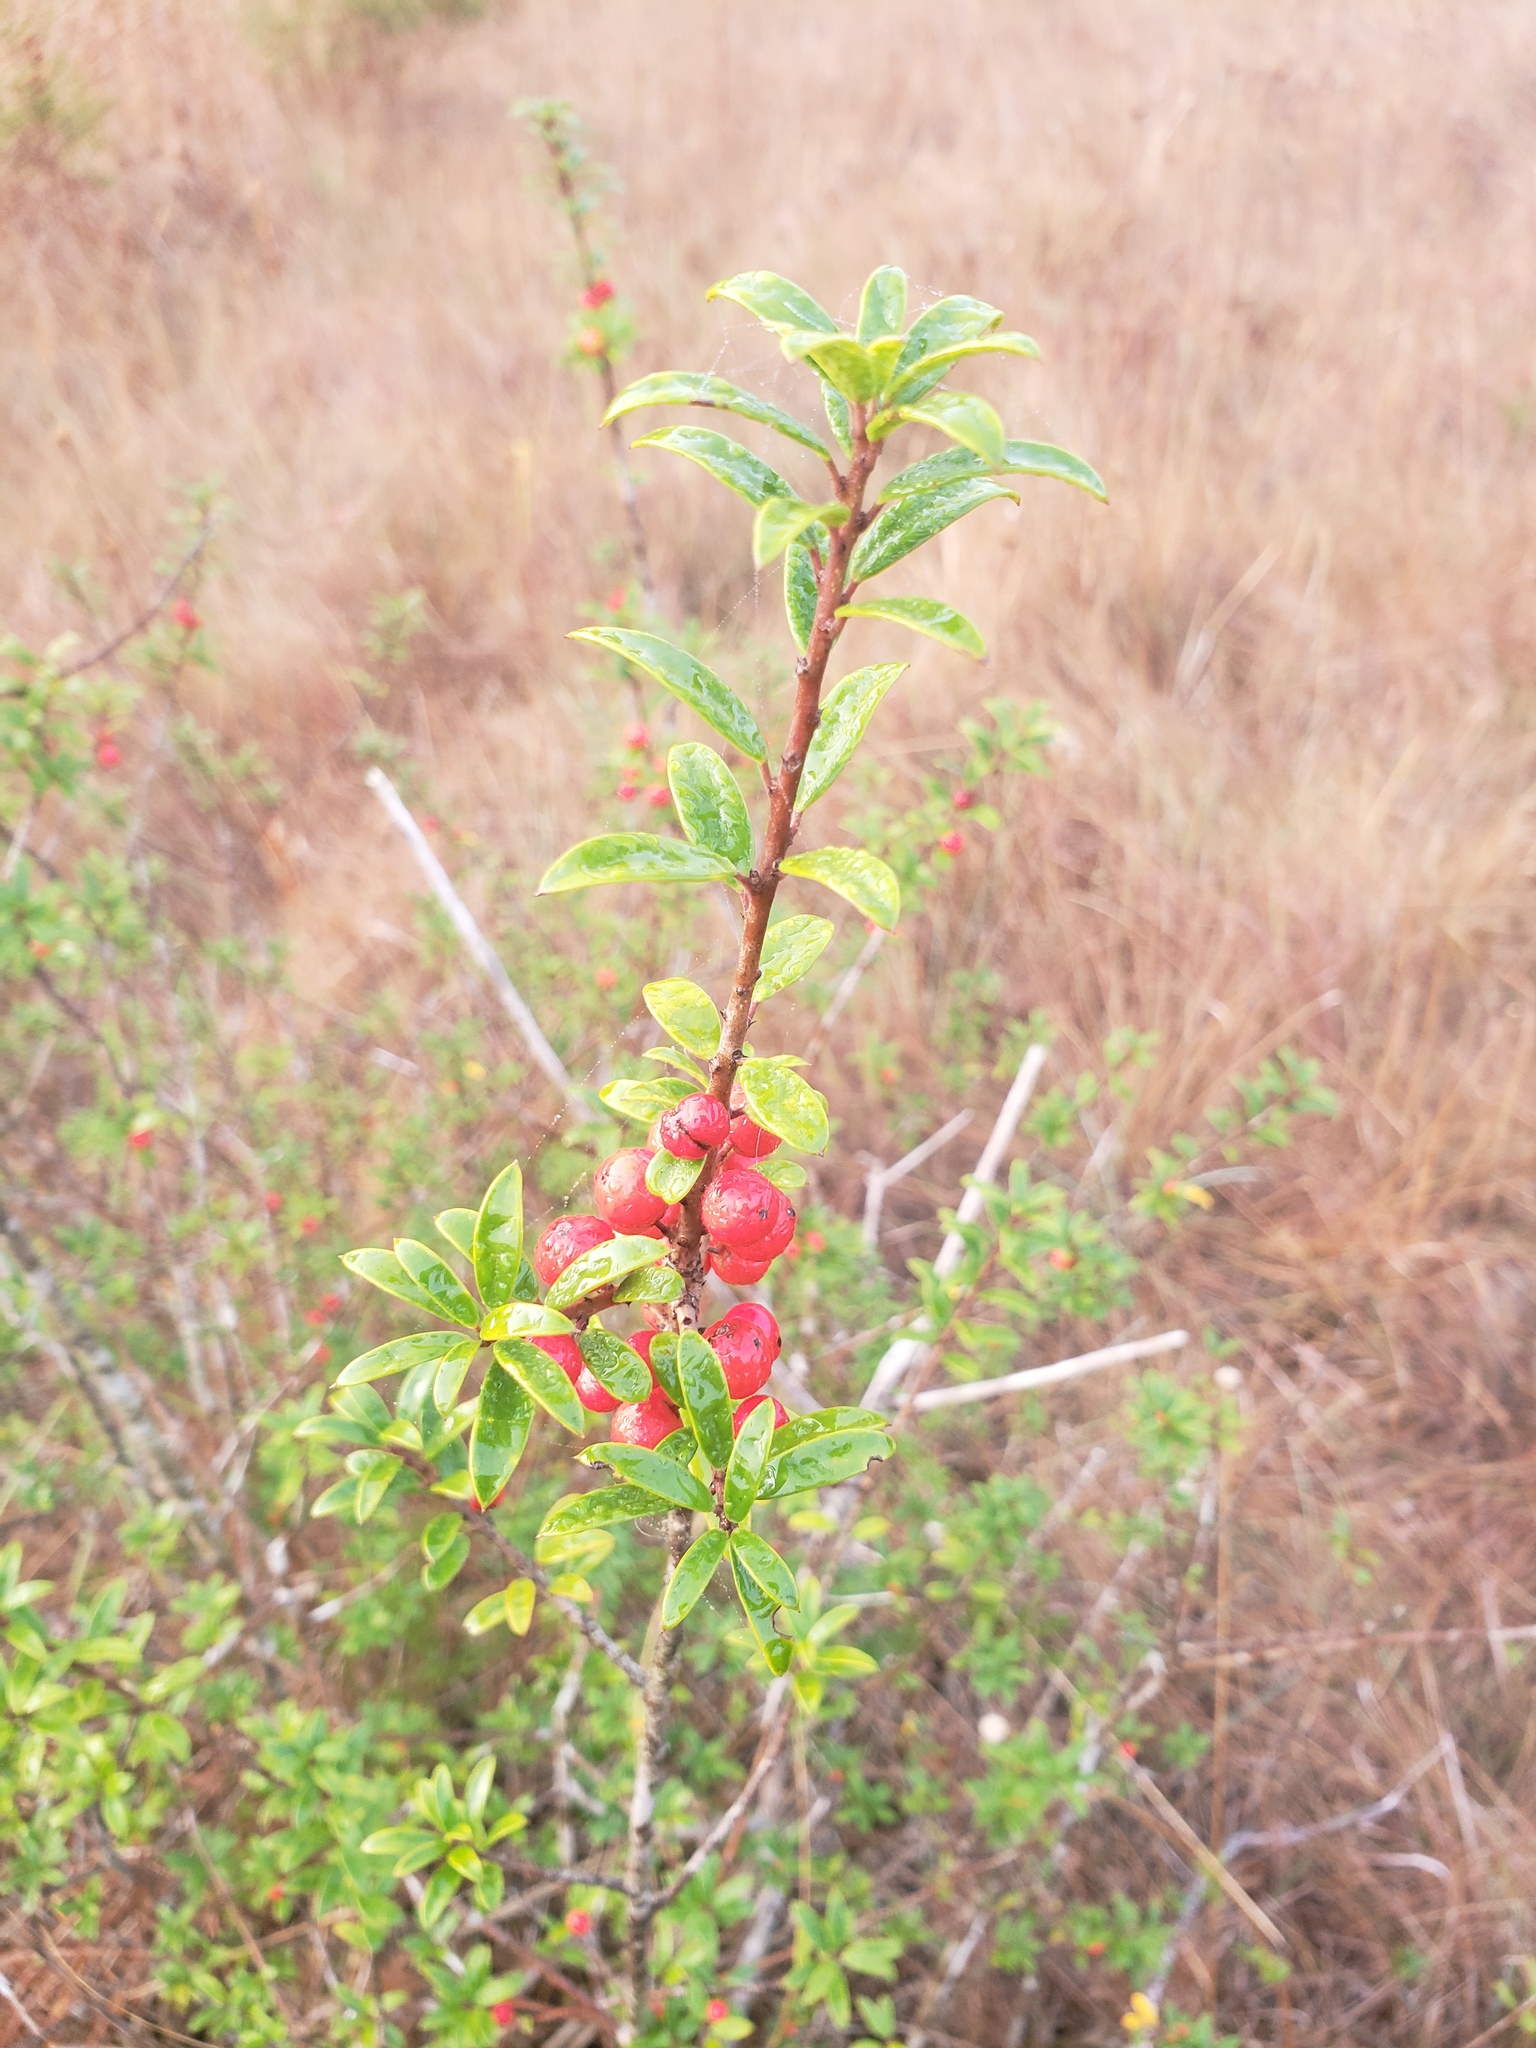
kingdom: Plantae
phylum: Tracheophyta
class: Magnoliopsida
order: Aquifoliales
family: Aquifoliaceae
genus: Ilex
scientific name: Ilex myrtifolia
